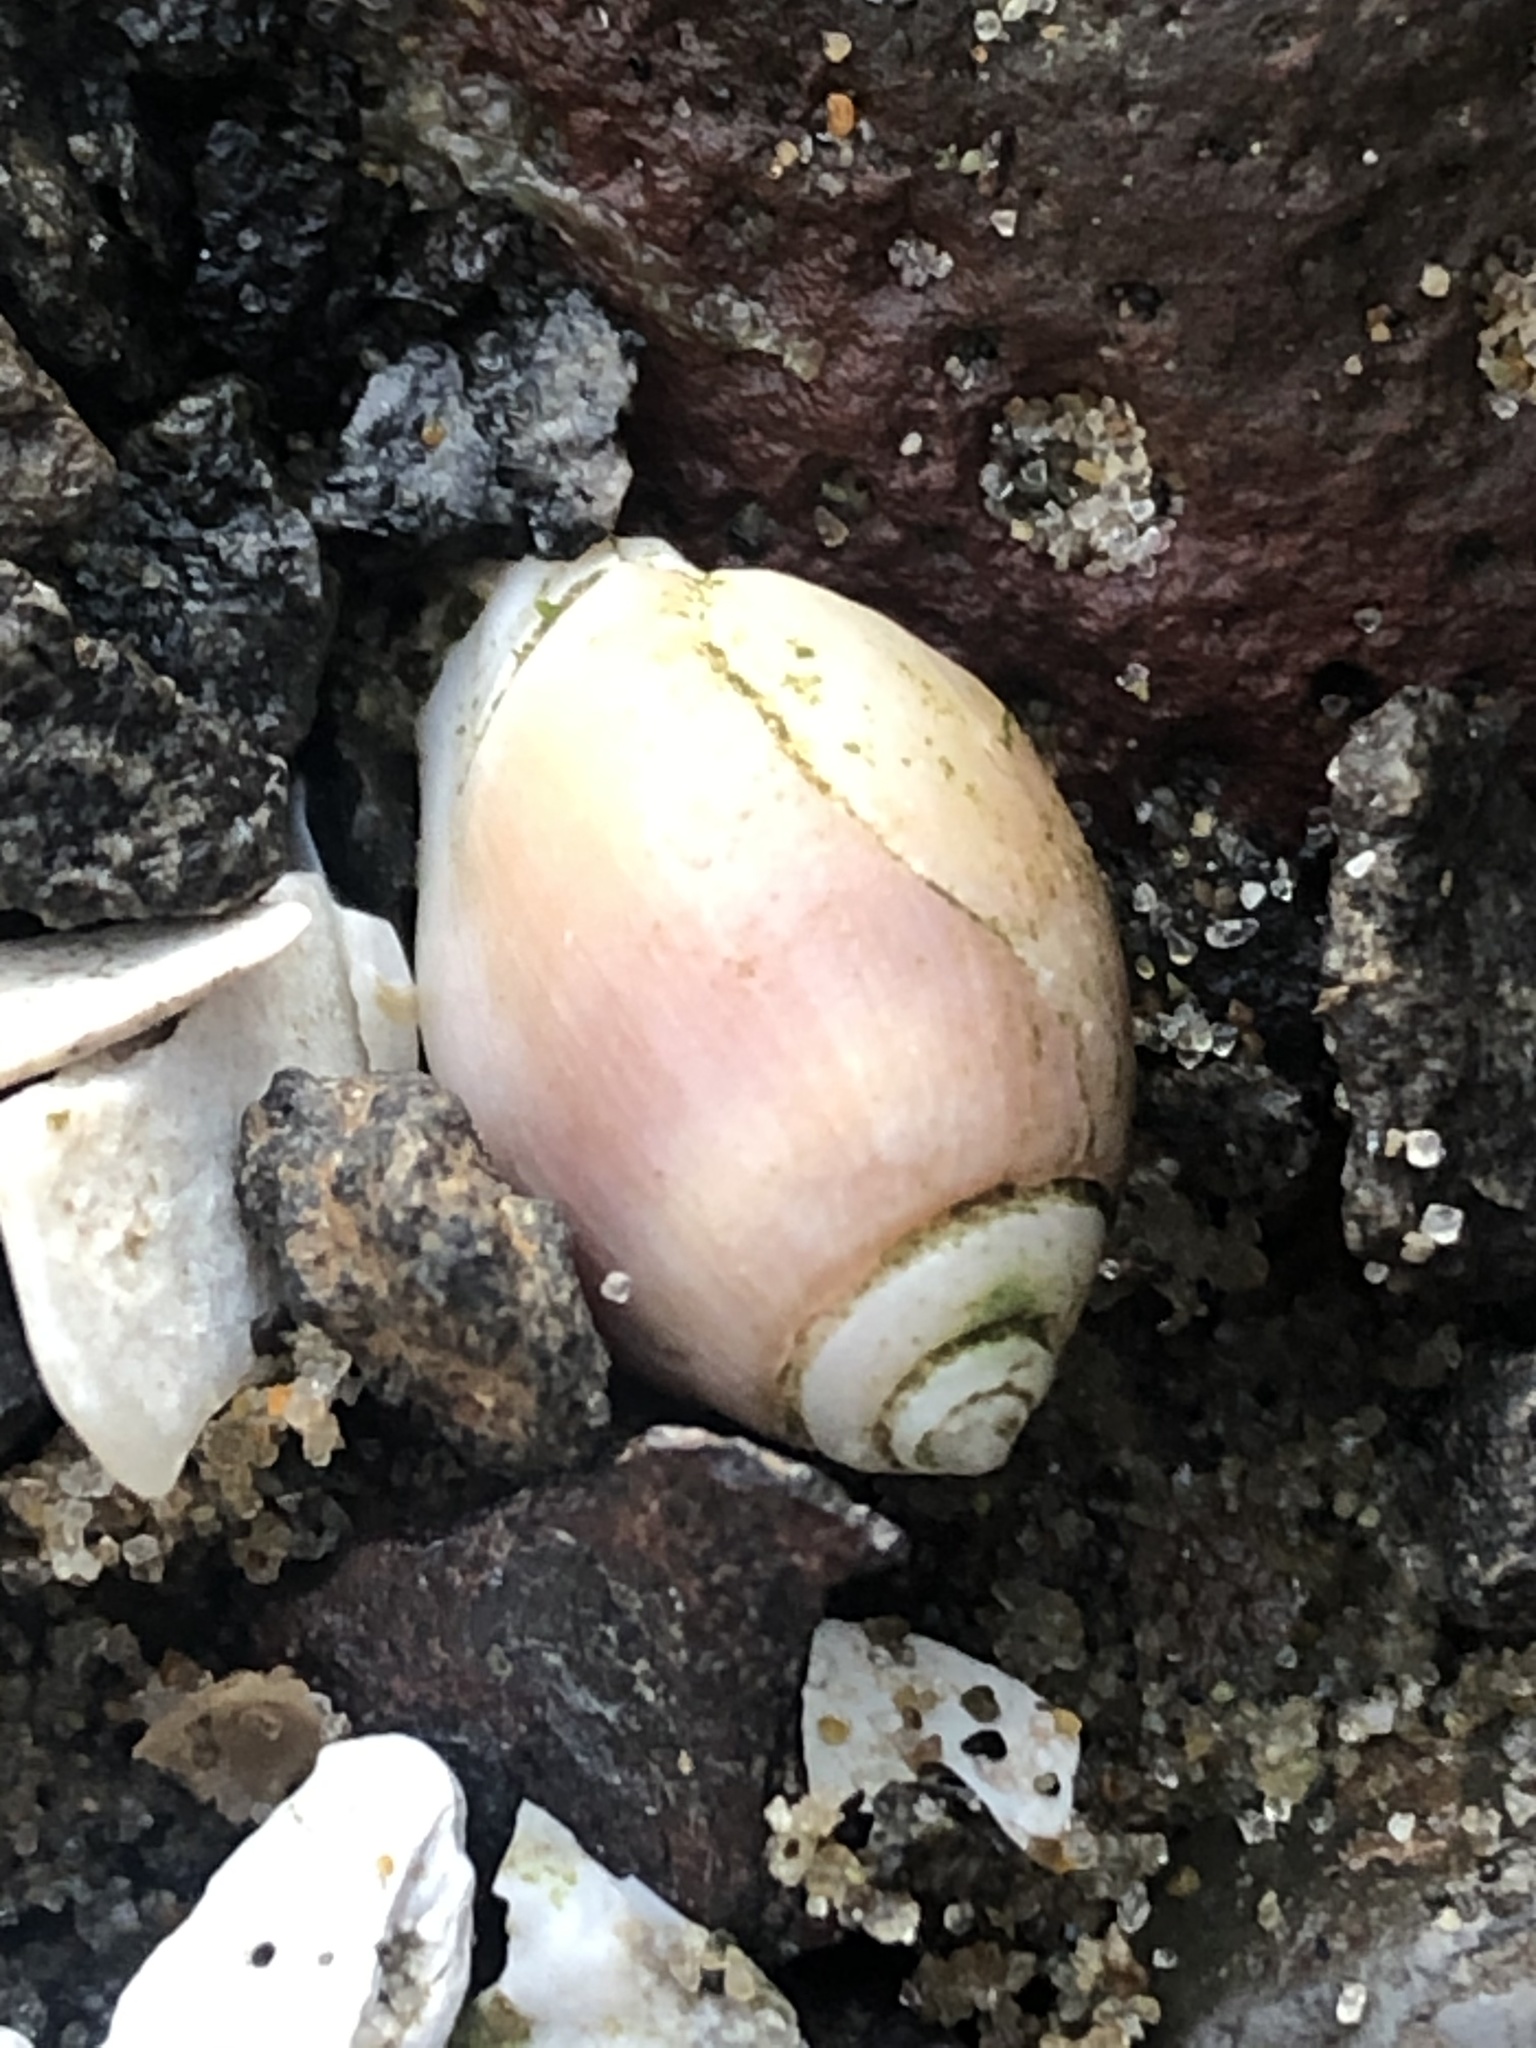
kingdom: Animalia
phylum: Mollusca
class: Gastropoda
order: Neogastropoda
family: Olividae
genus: Callianax
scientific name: Callianax biplicata
